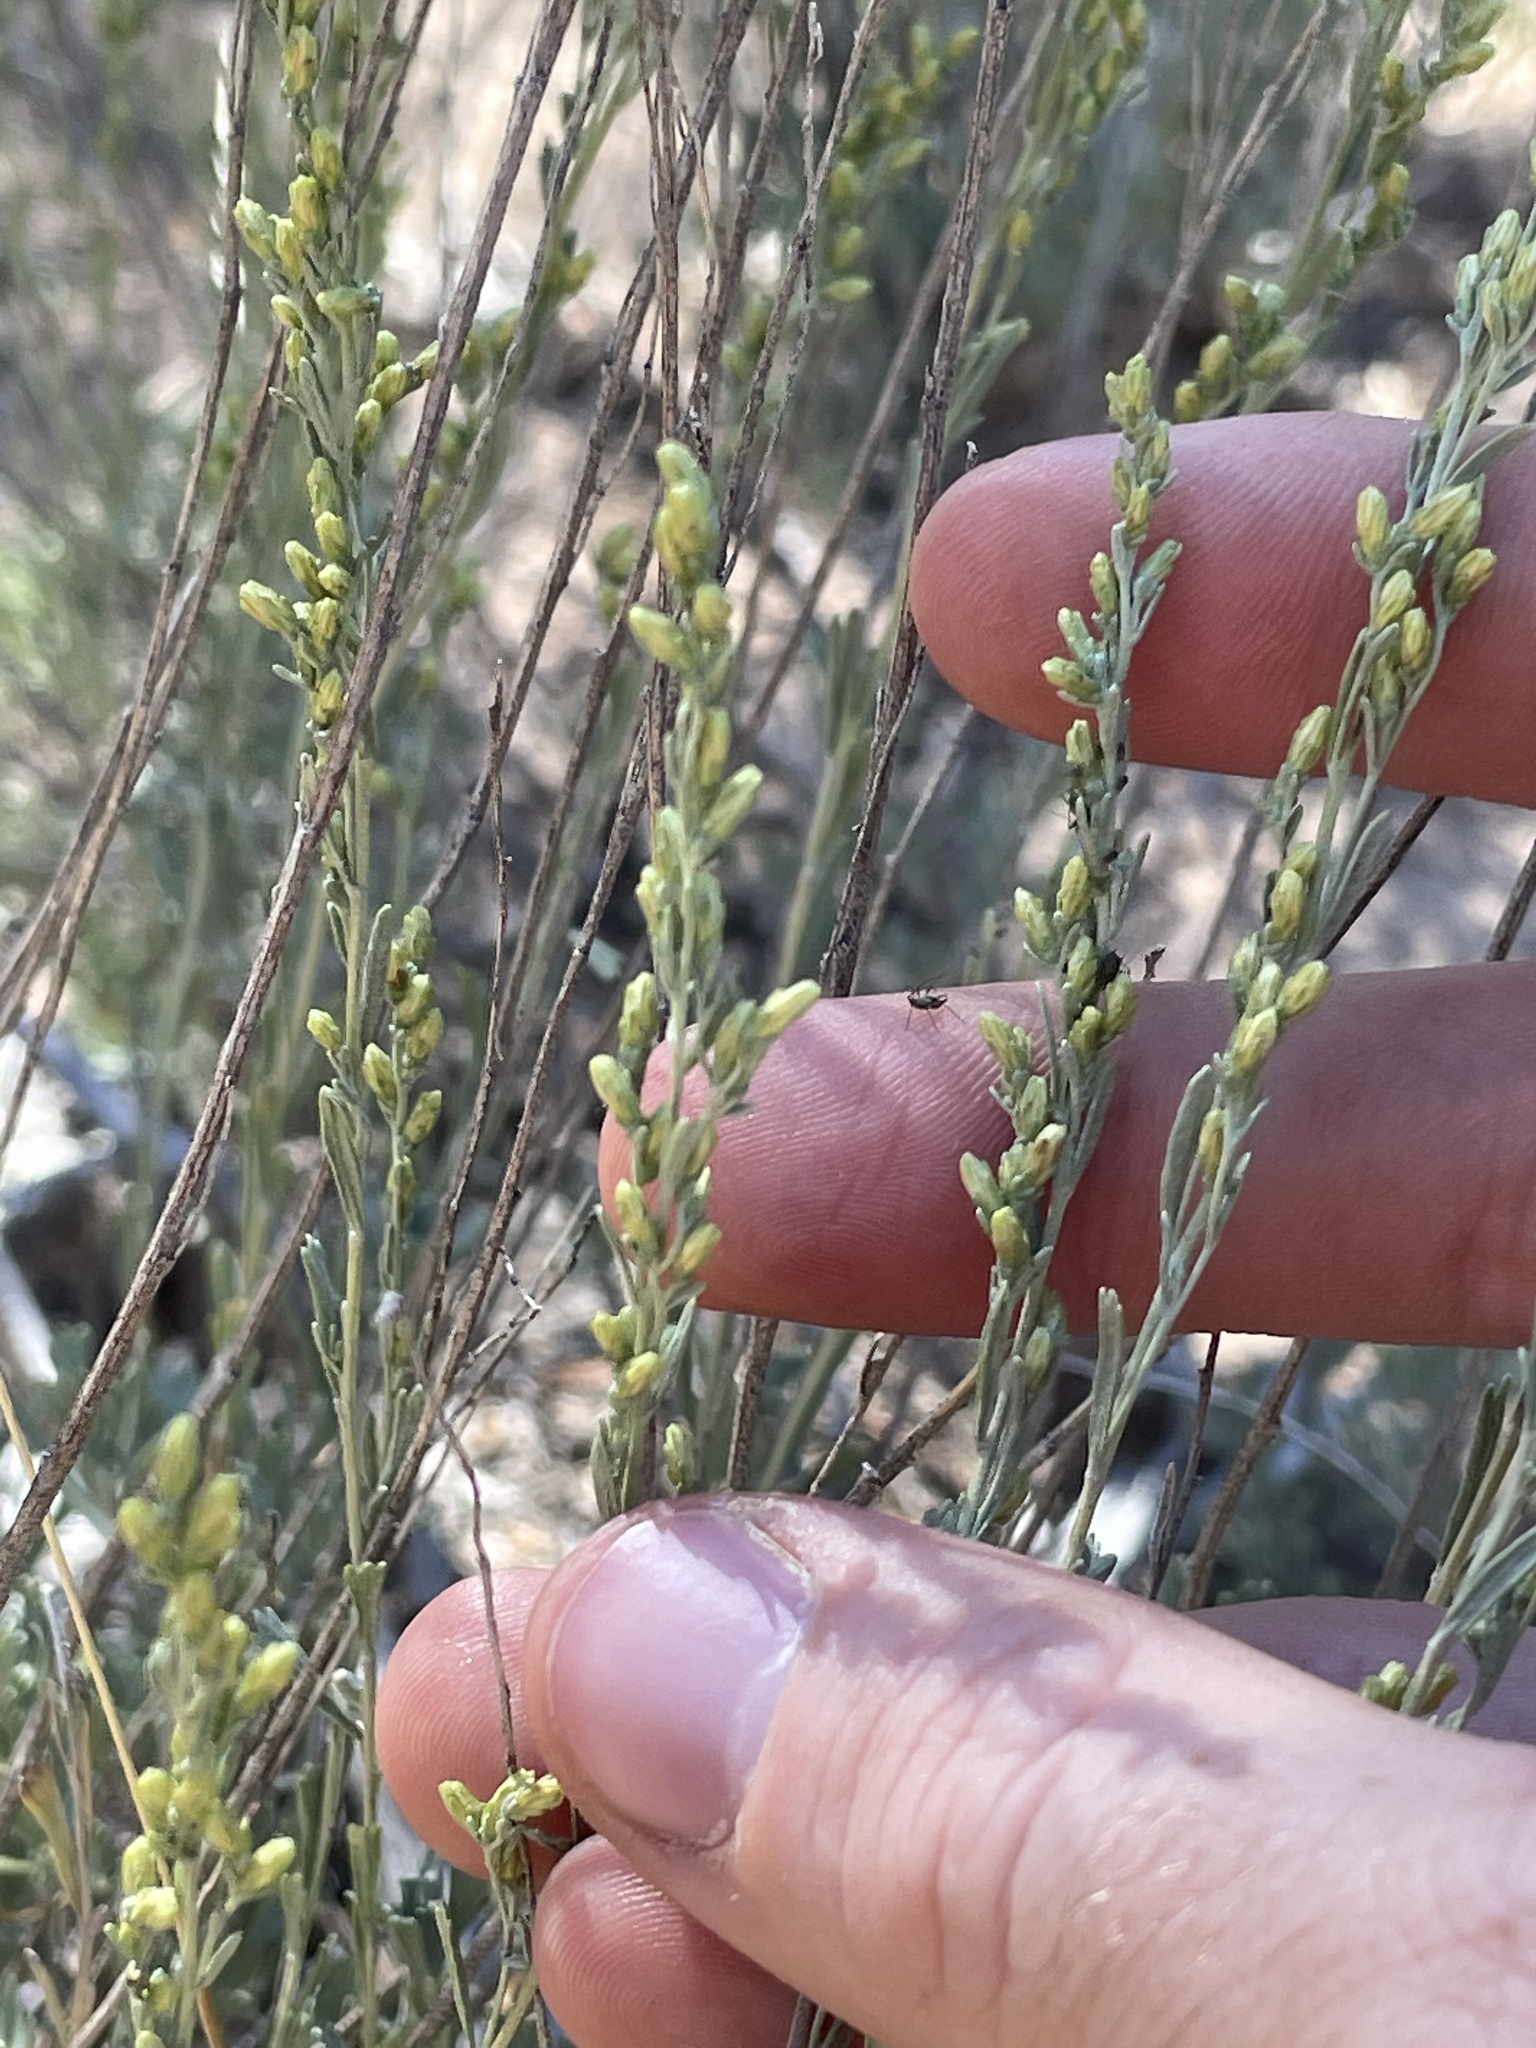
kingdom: Plantae
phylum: Tracheophyta
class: Magnoliopsida
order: Asterales
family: Asteraceae
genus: Artemisia
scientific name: Artemisia tridentata
